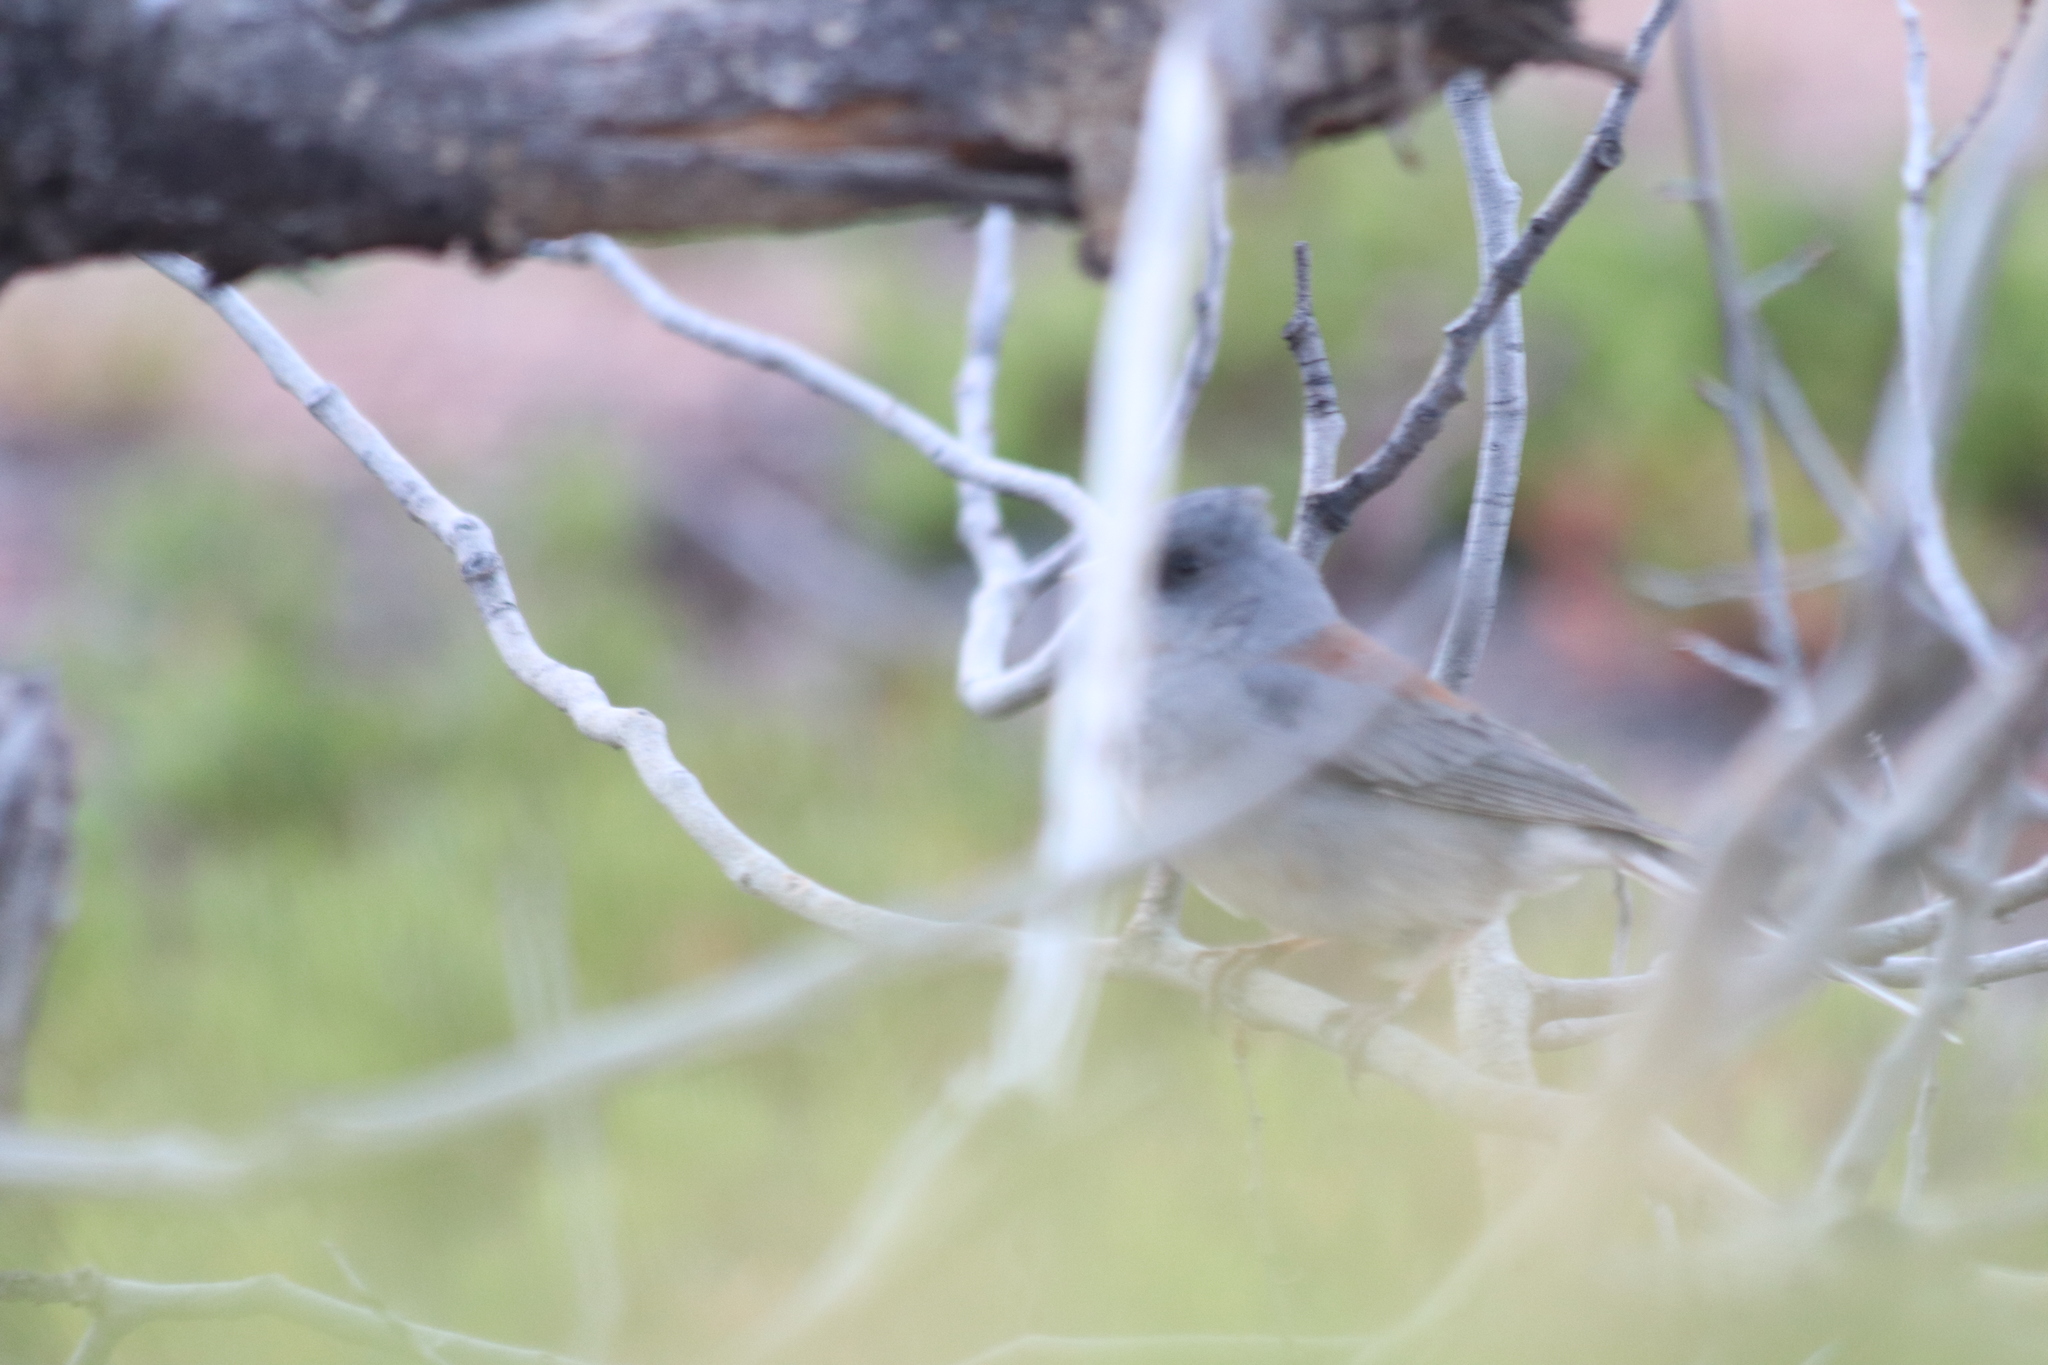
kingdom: Animalia
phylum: Chordata
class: Aves
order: Passeriformes
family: Passerellidae
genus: Junco
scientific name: Junco hyemalis
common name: Dark-eyed junco
